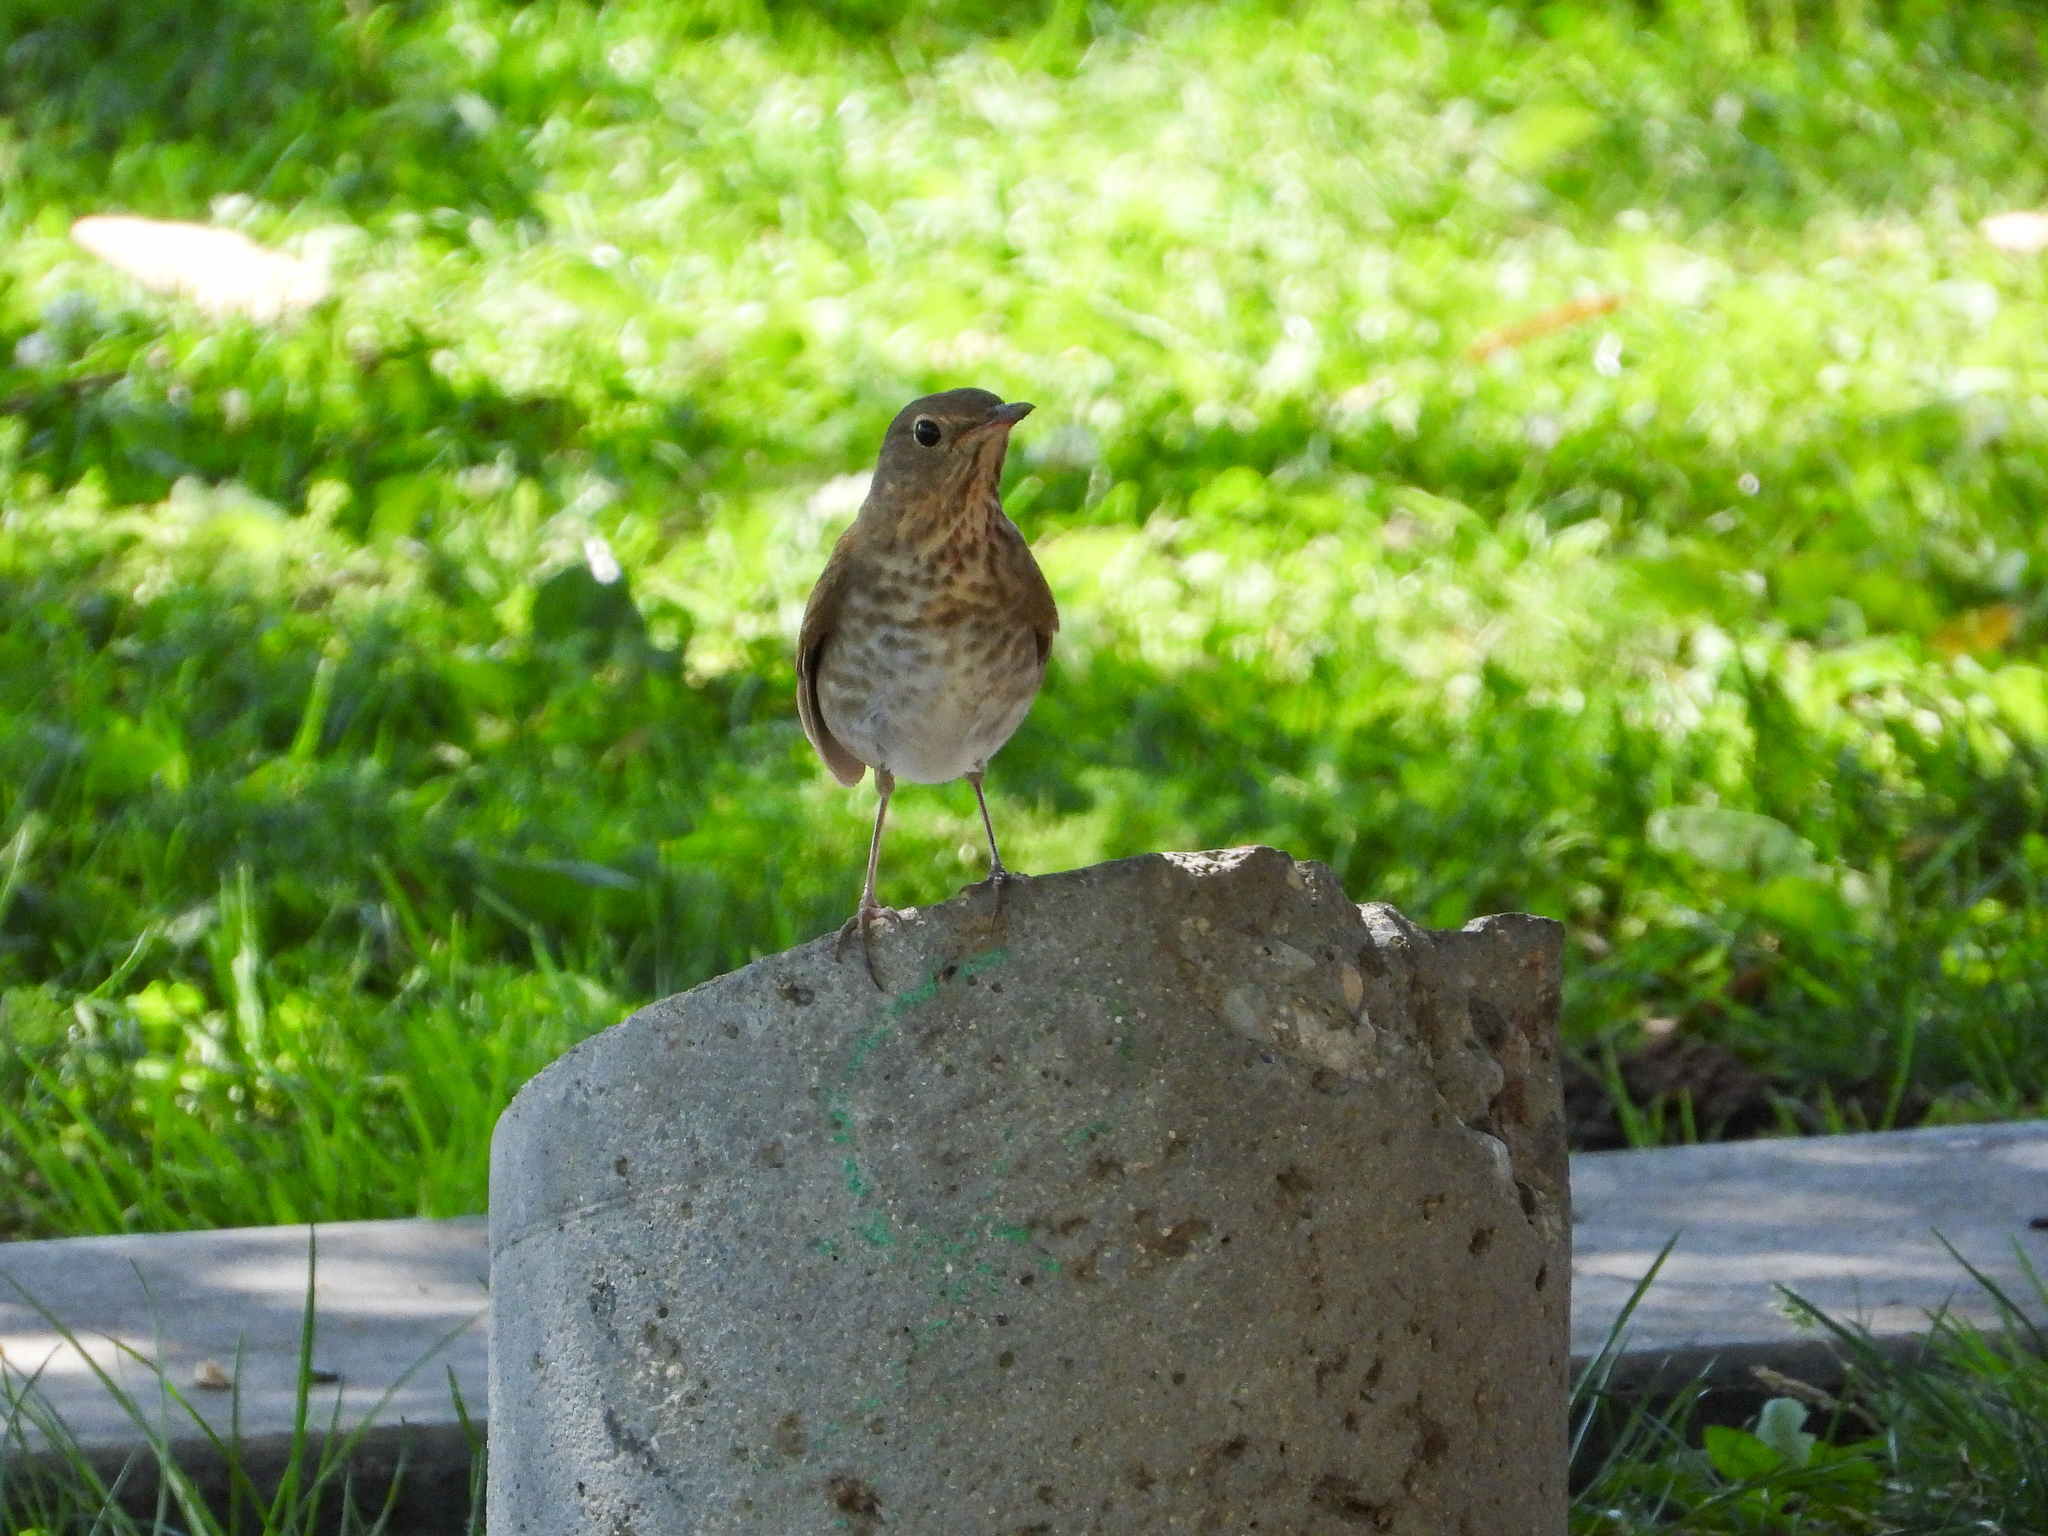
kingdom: Animalia
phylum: Chordata
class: Aves
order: Passeriformes
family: Turdidae
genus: Catharus
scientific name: Catharus ustulatus
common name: Swainson's thrush
